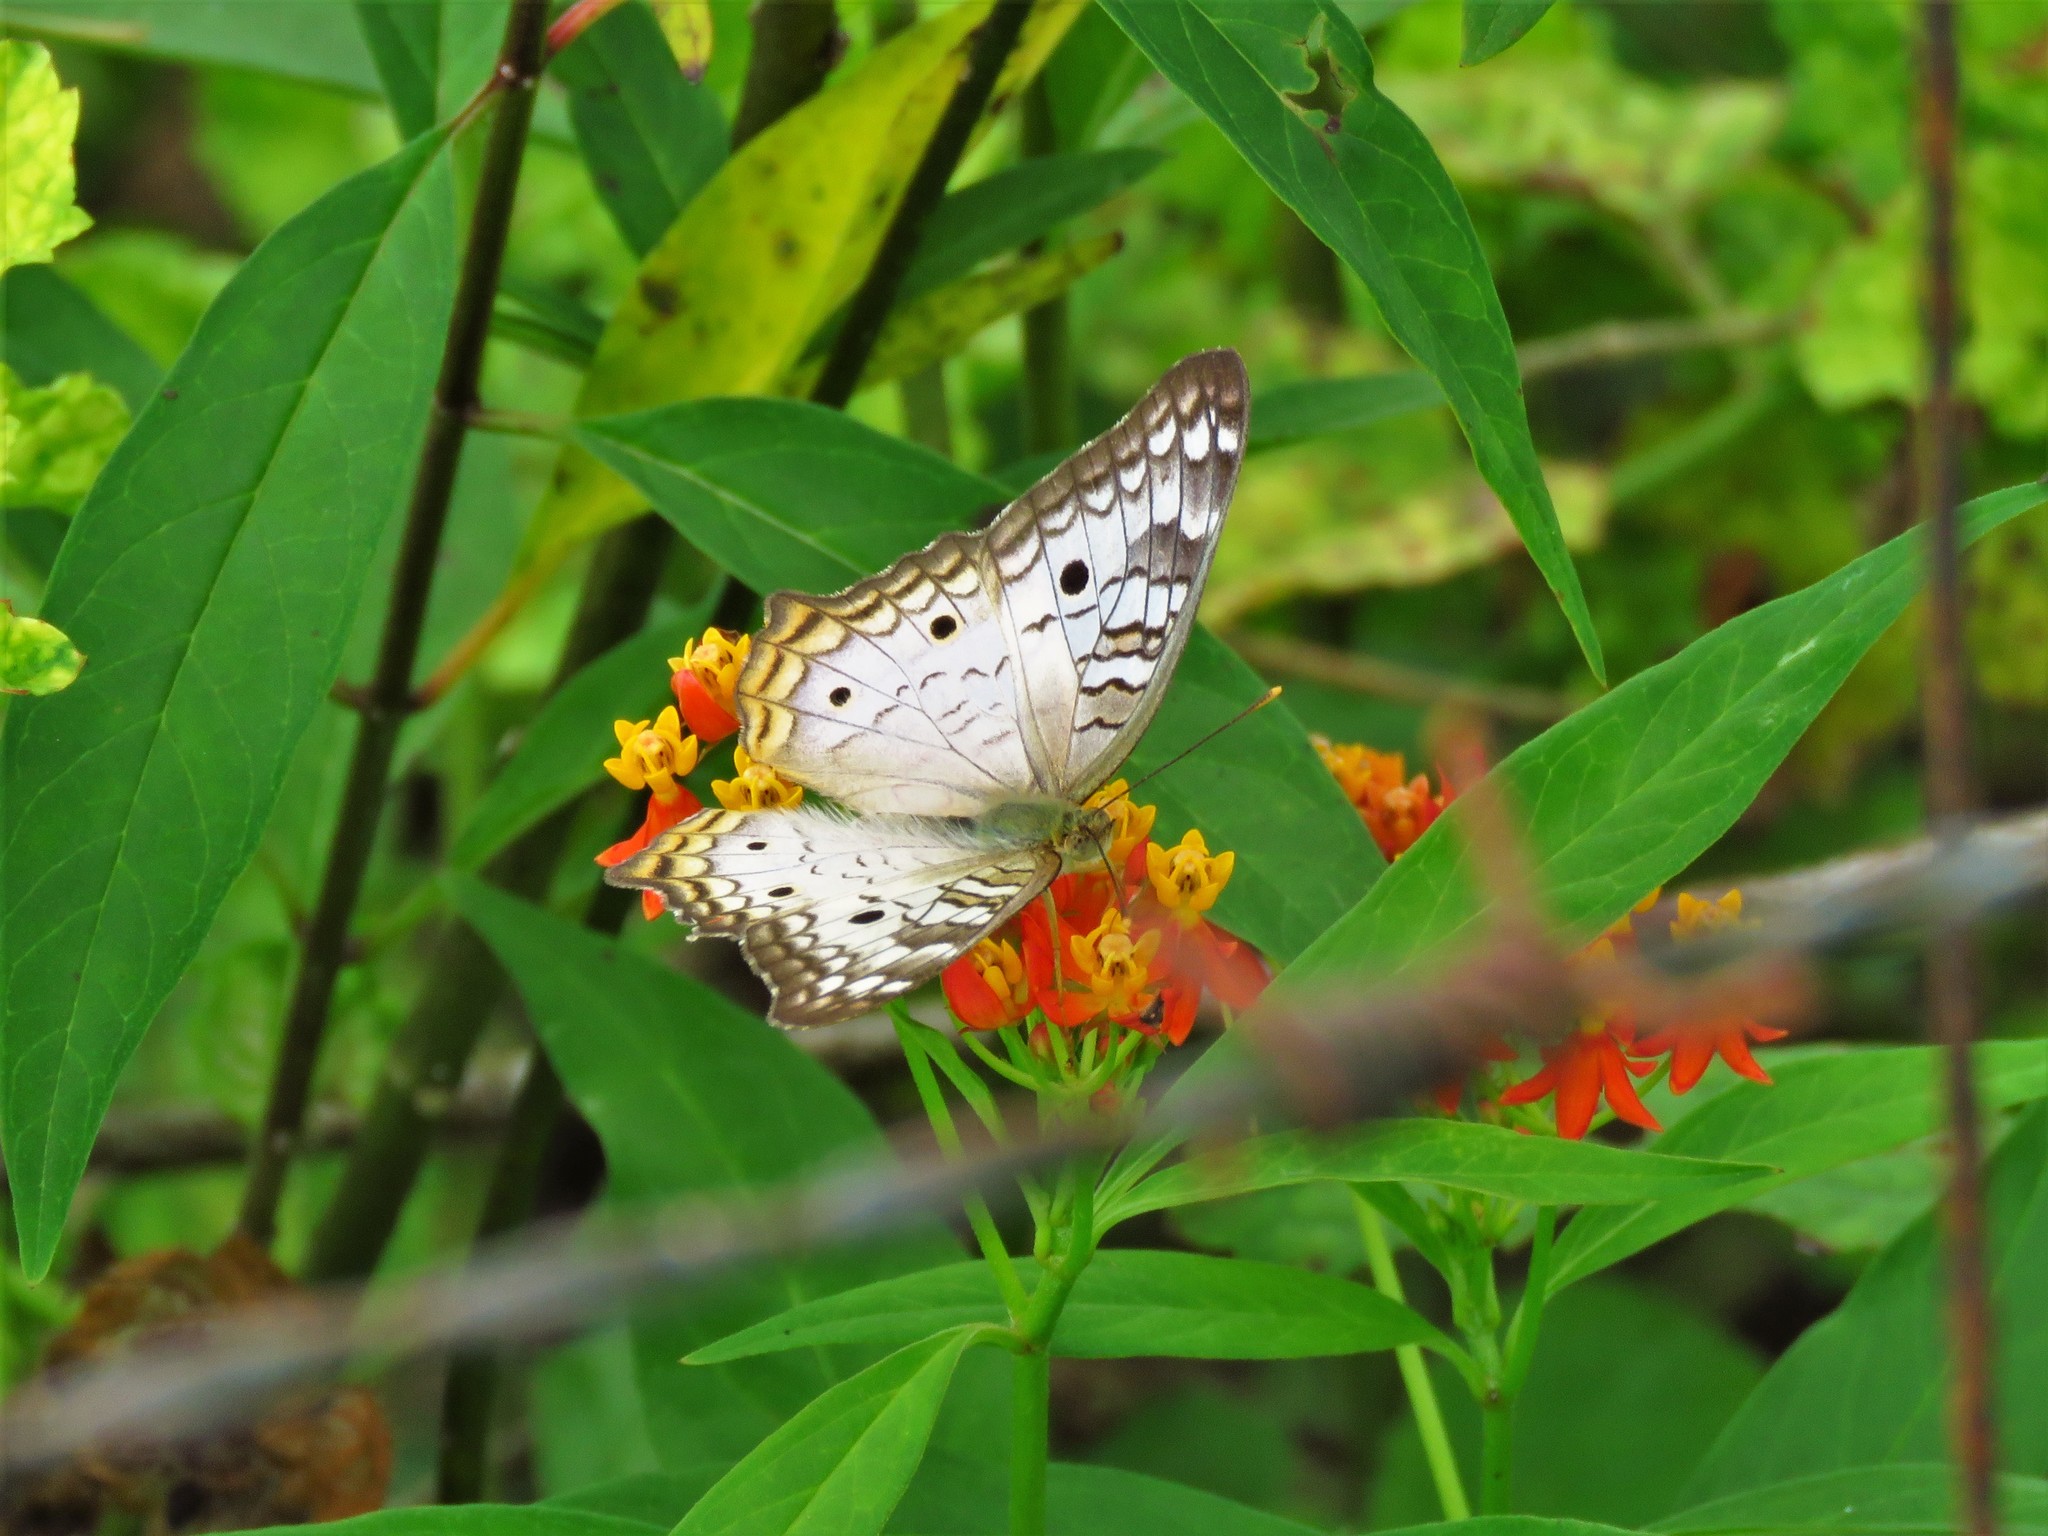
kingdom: Animalia
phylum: Arthropoda
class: Insecta
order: Lepidoptera
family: Nymphalidae
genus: Anartia
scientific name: Anartia jatrophae
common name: White peacock
